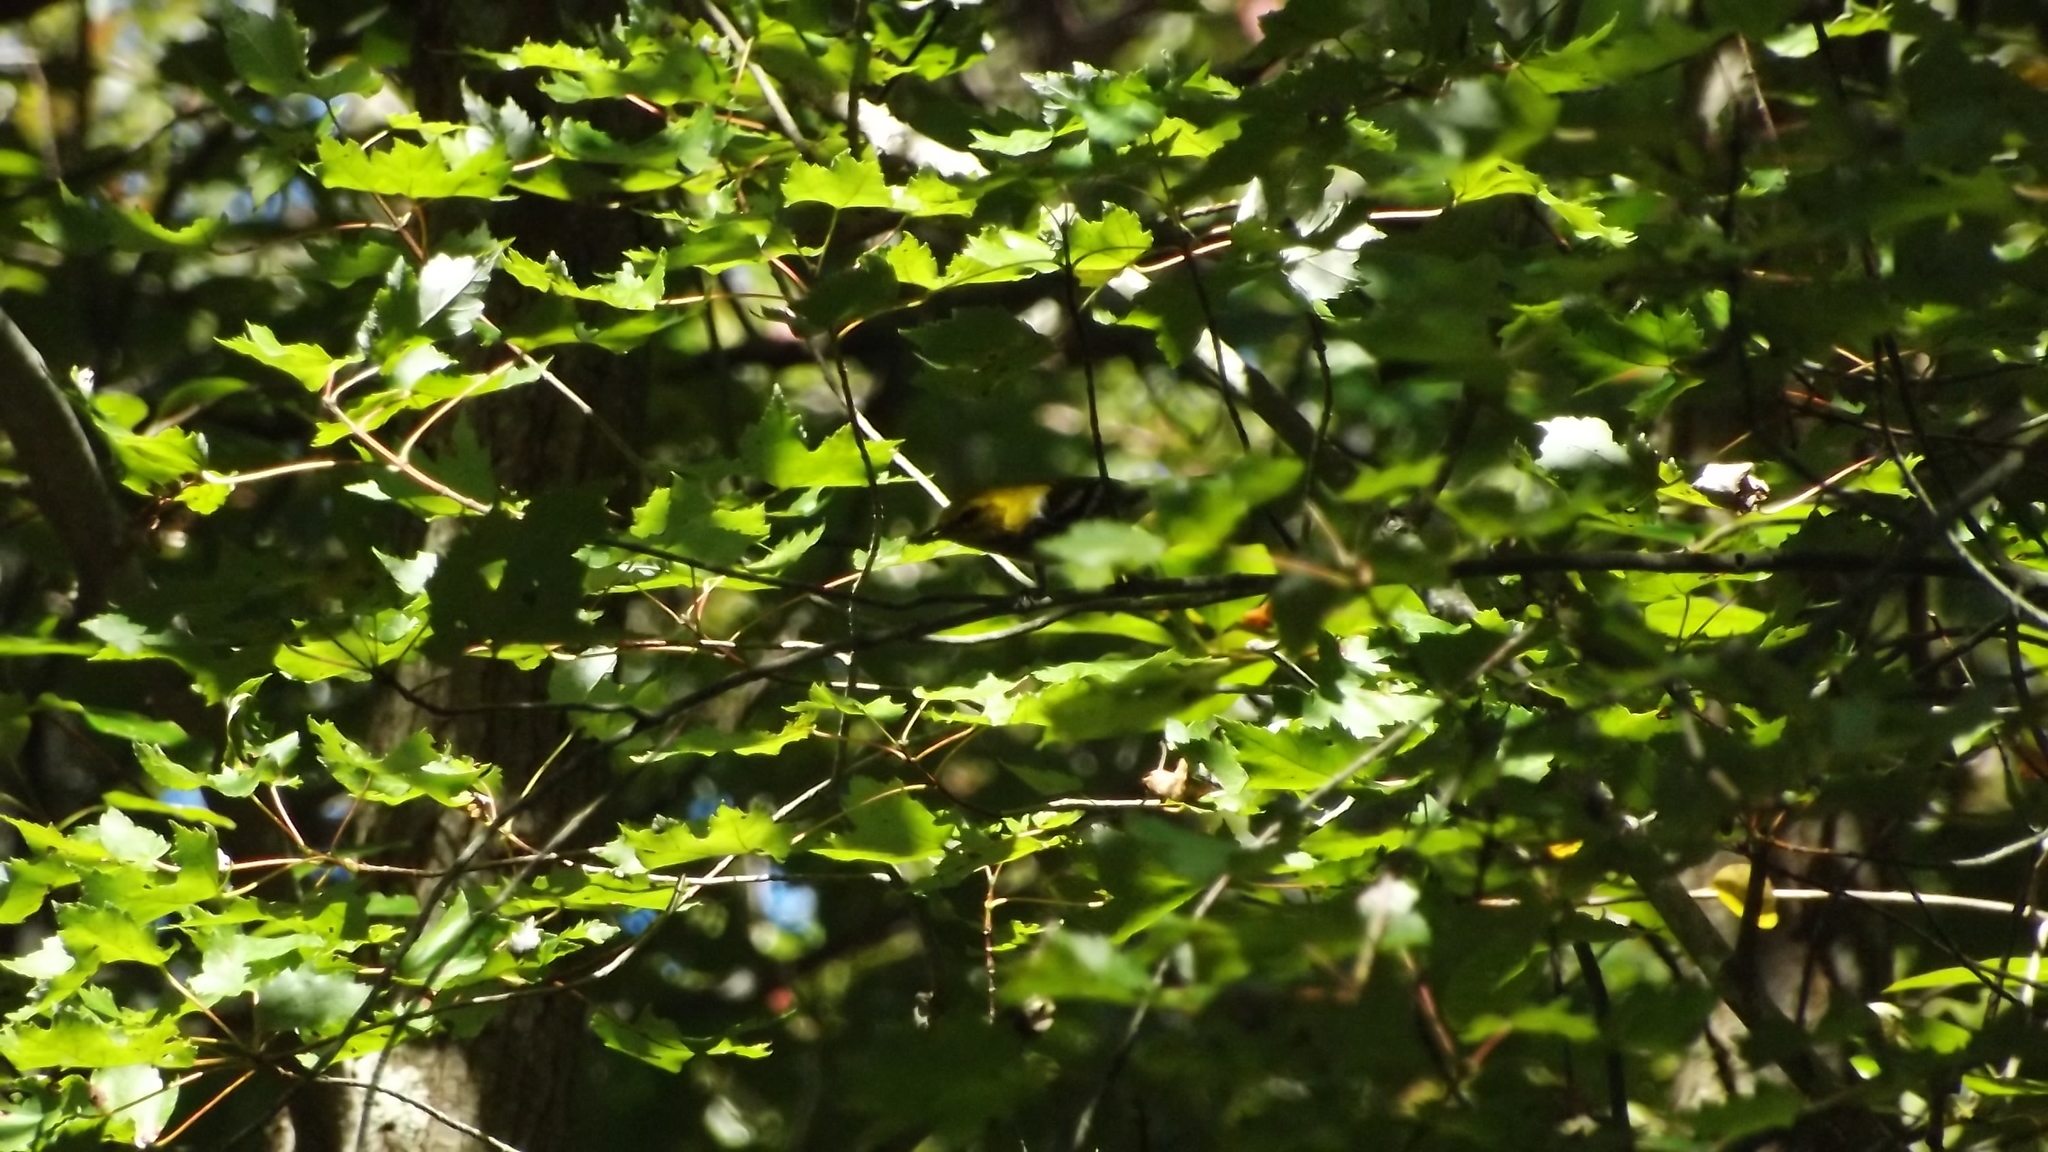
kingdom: Animalia
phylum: Chordata
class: Aves
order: Passeriformes
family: Parulidae
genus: Setophaga
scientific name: Setophaga virens
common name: Black-throated green warbler
